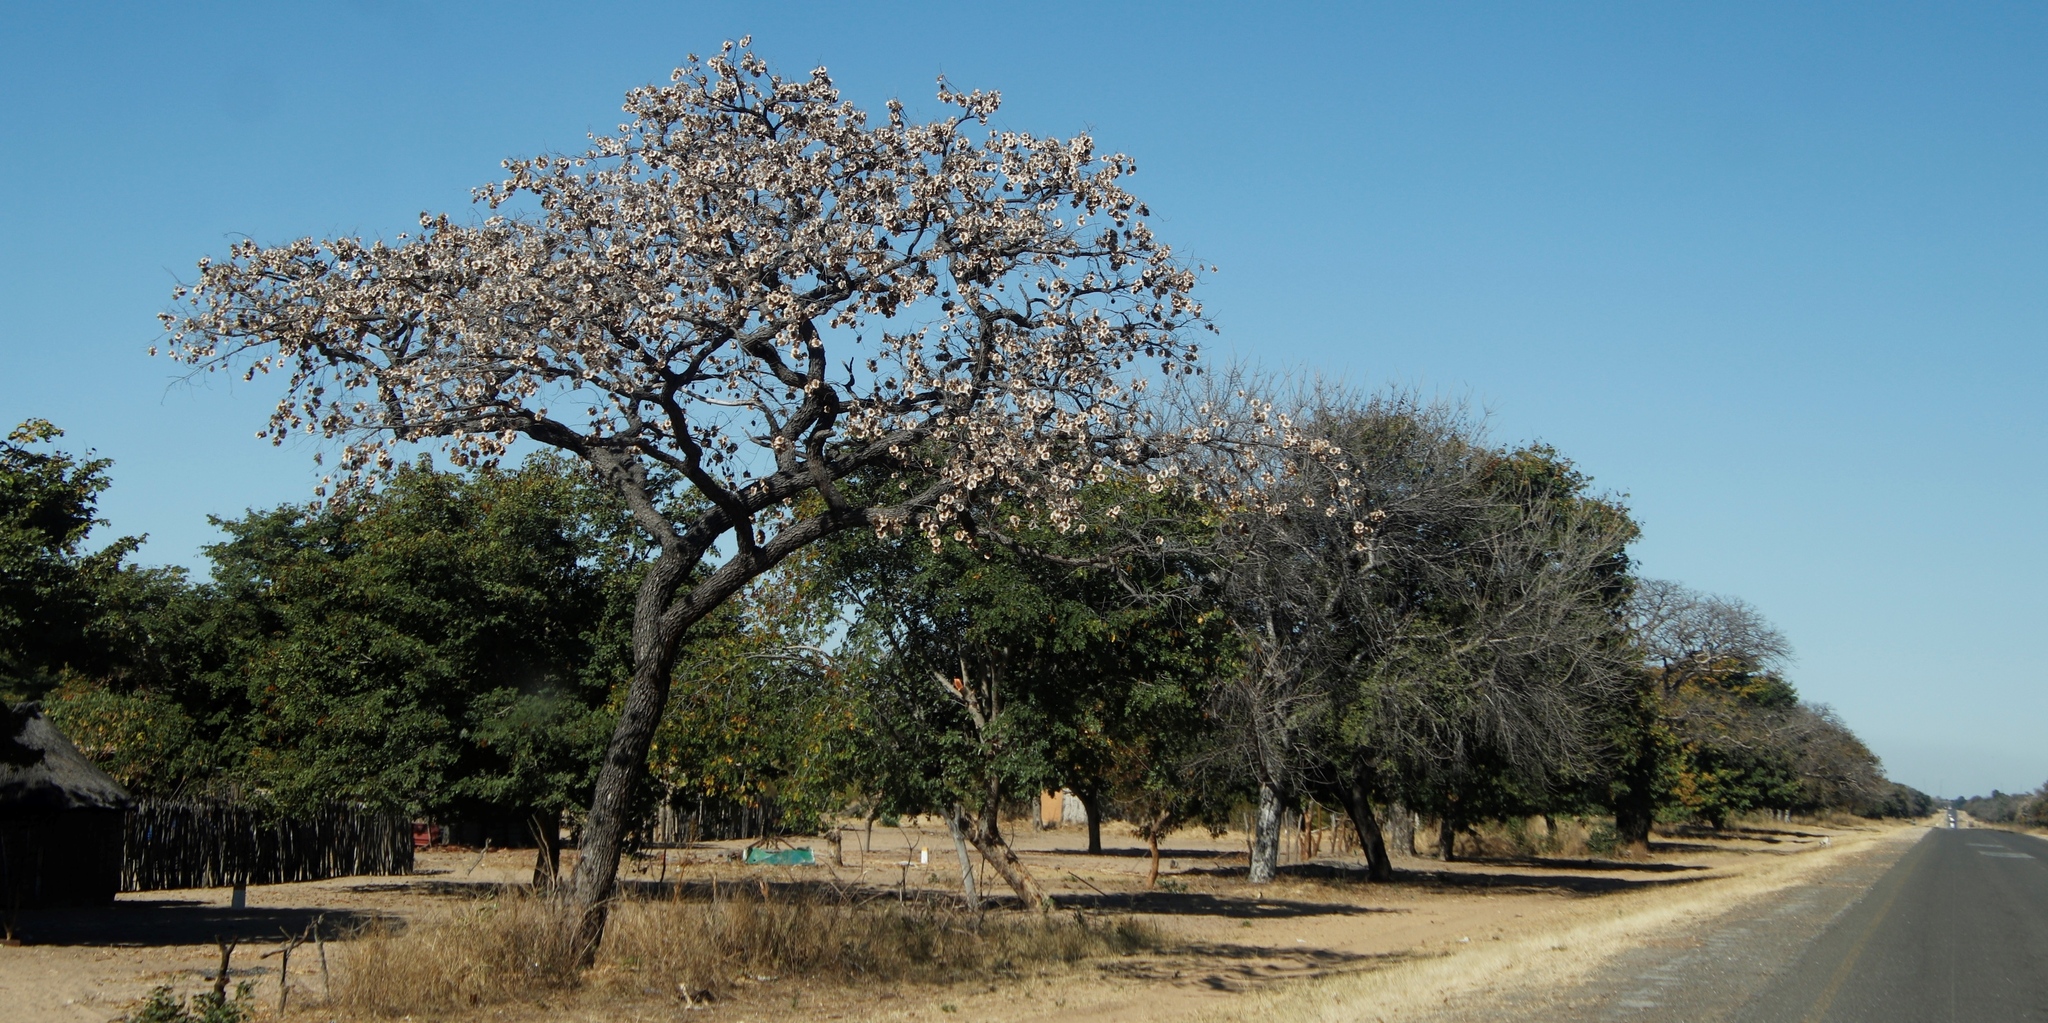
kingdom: Plantae
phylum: Tracheophyta
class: Magnoliopsida
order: Fabales
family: Fabaceae
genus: Pterocarpus
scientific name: Pterocarpus angolensis
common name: Bloodwood tree
